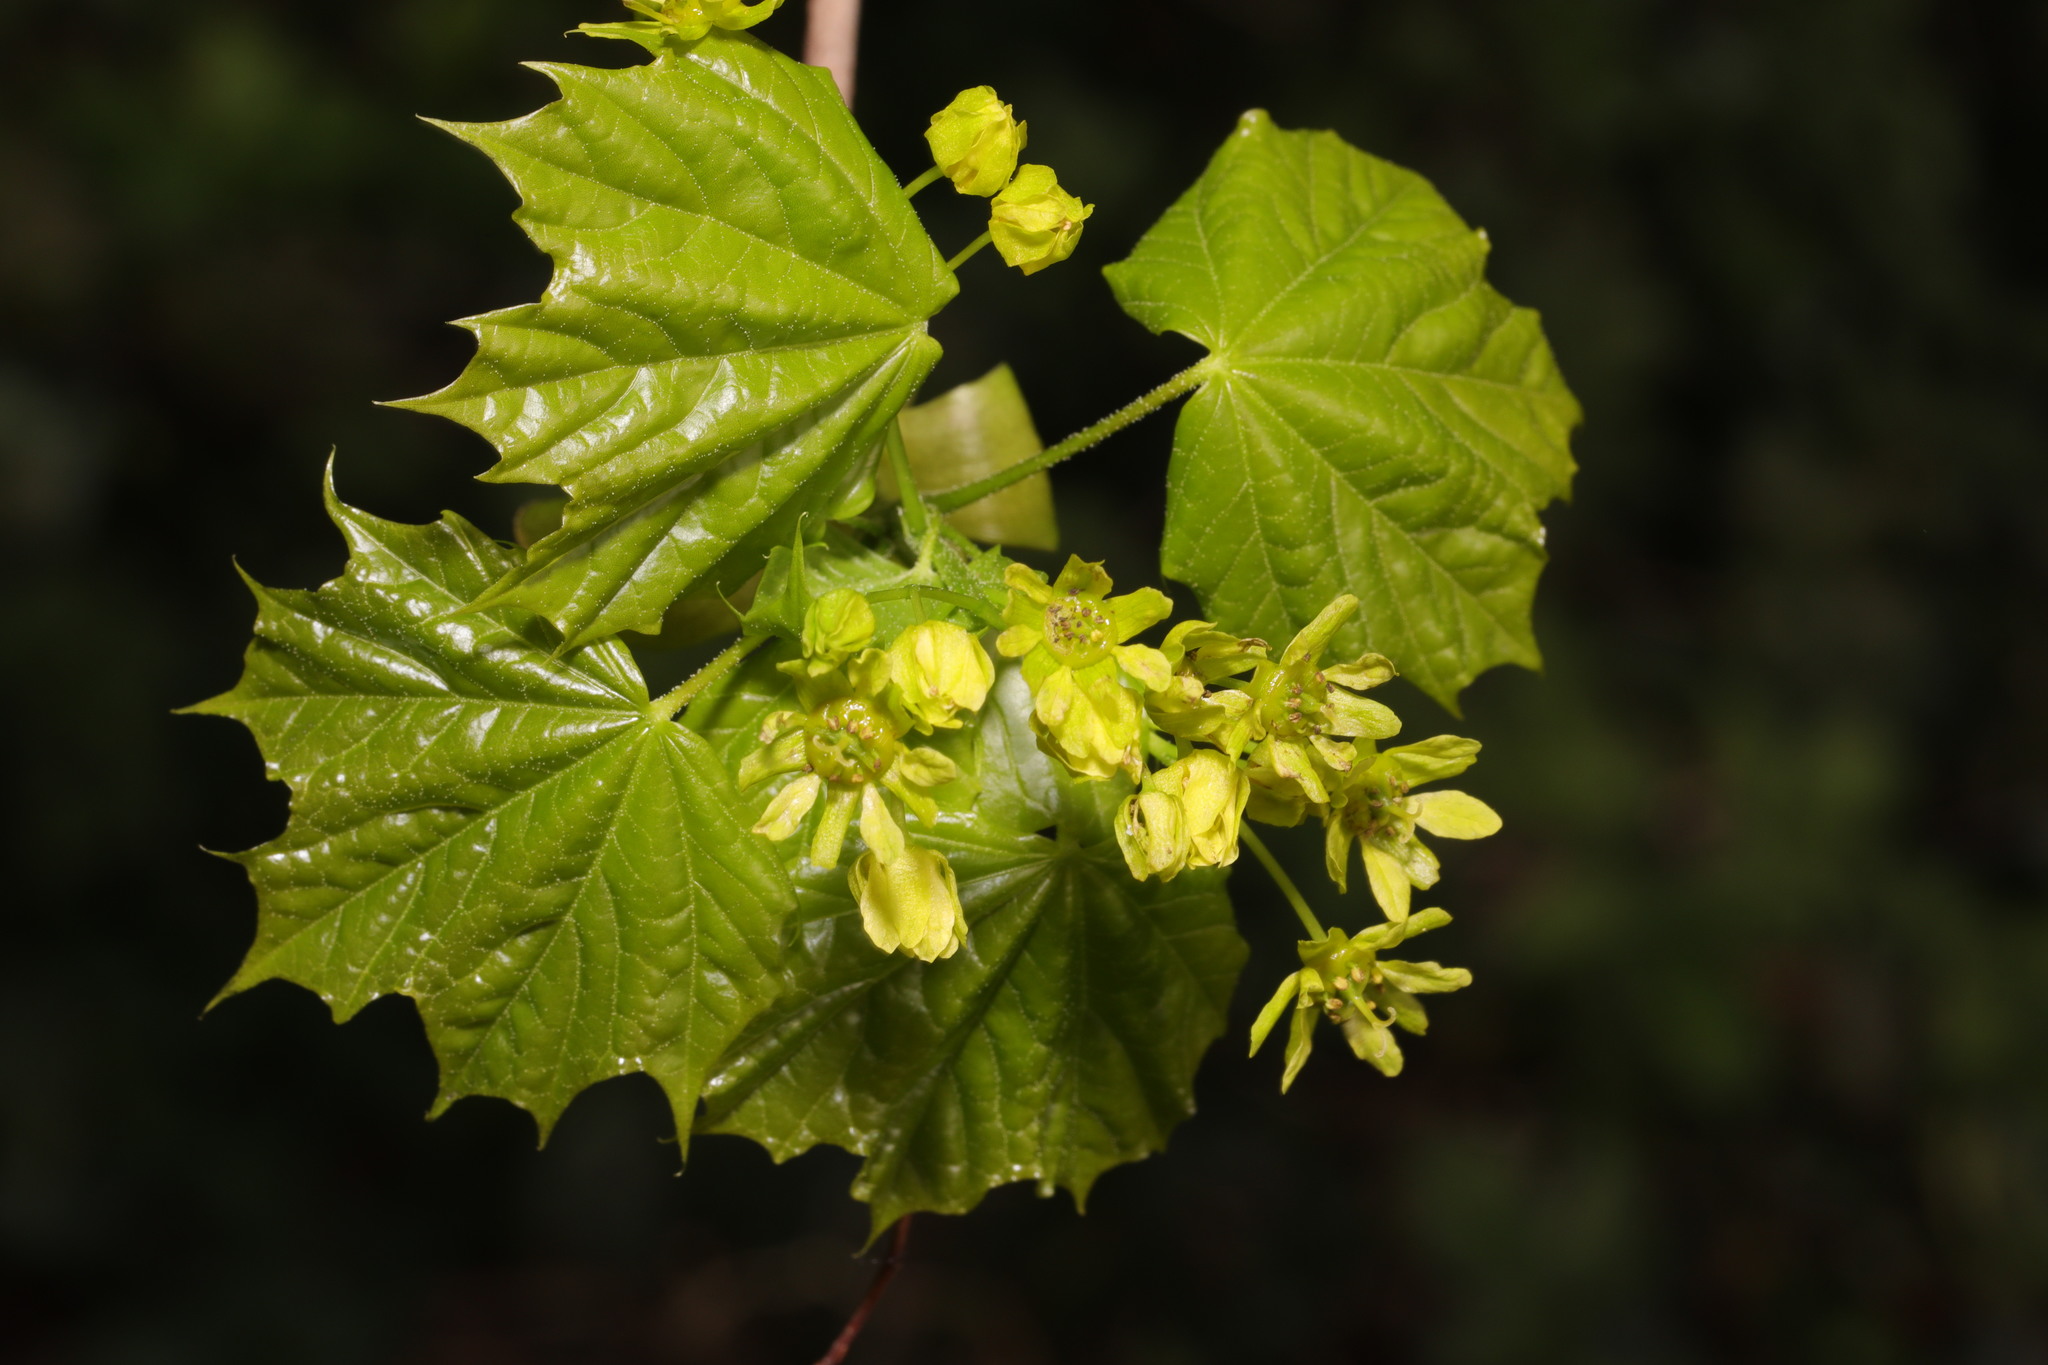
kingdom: Plantae
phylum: Tracheophyta
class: Magnoliopsida
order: Sapindales
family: Sapindaceae
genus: Acer
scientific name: Acer platanoides
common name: Norway maple
